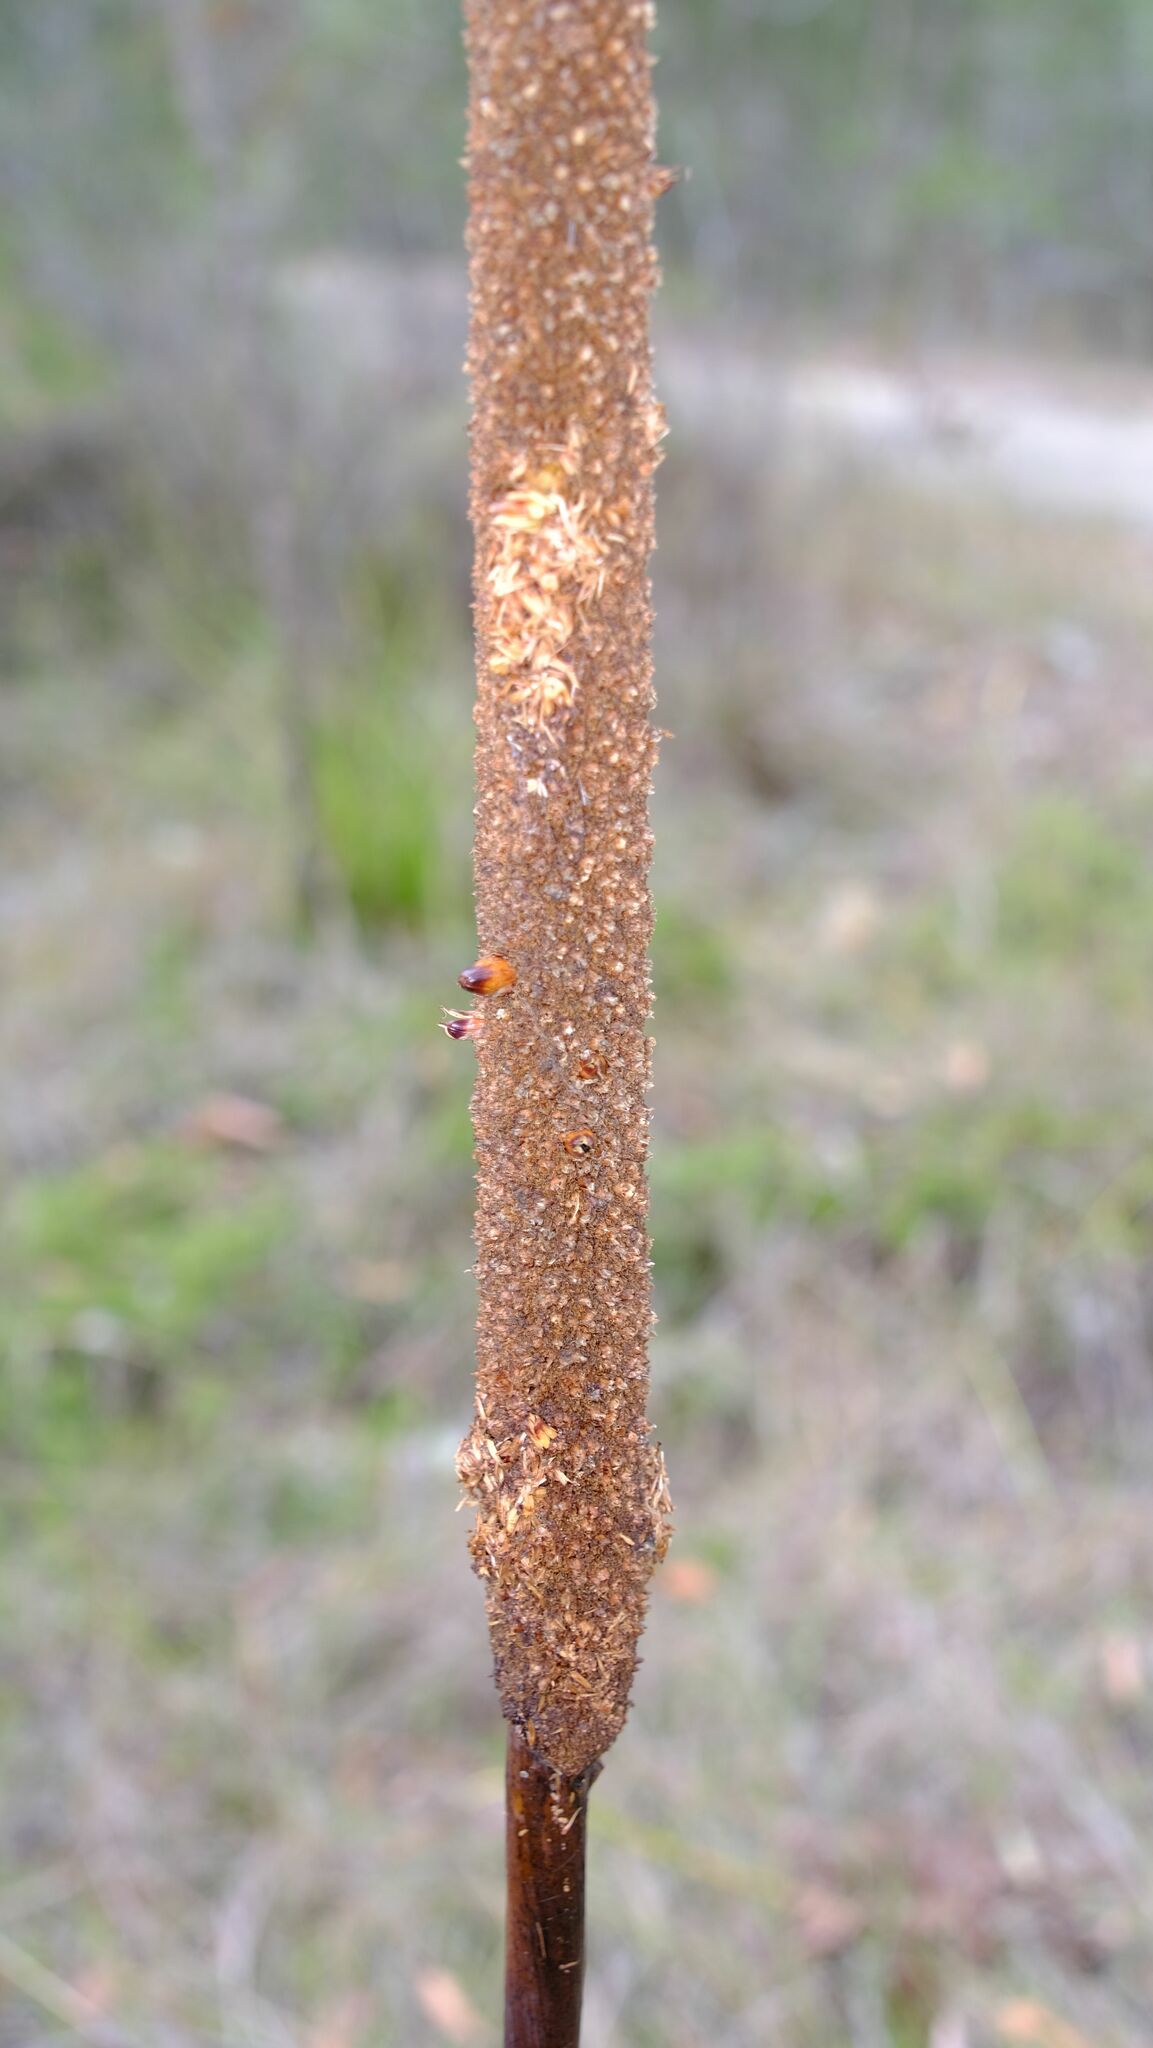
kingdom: Plantae
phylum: Tracheophyta
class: Liliopsida
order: Asparagales
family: Asphodelaceae
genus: Xanthorrhoea
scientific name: Xanthorrhoea latifolia
